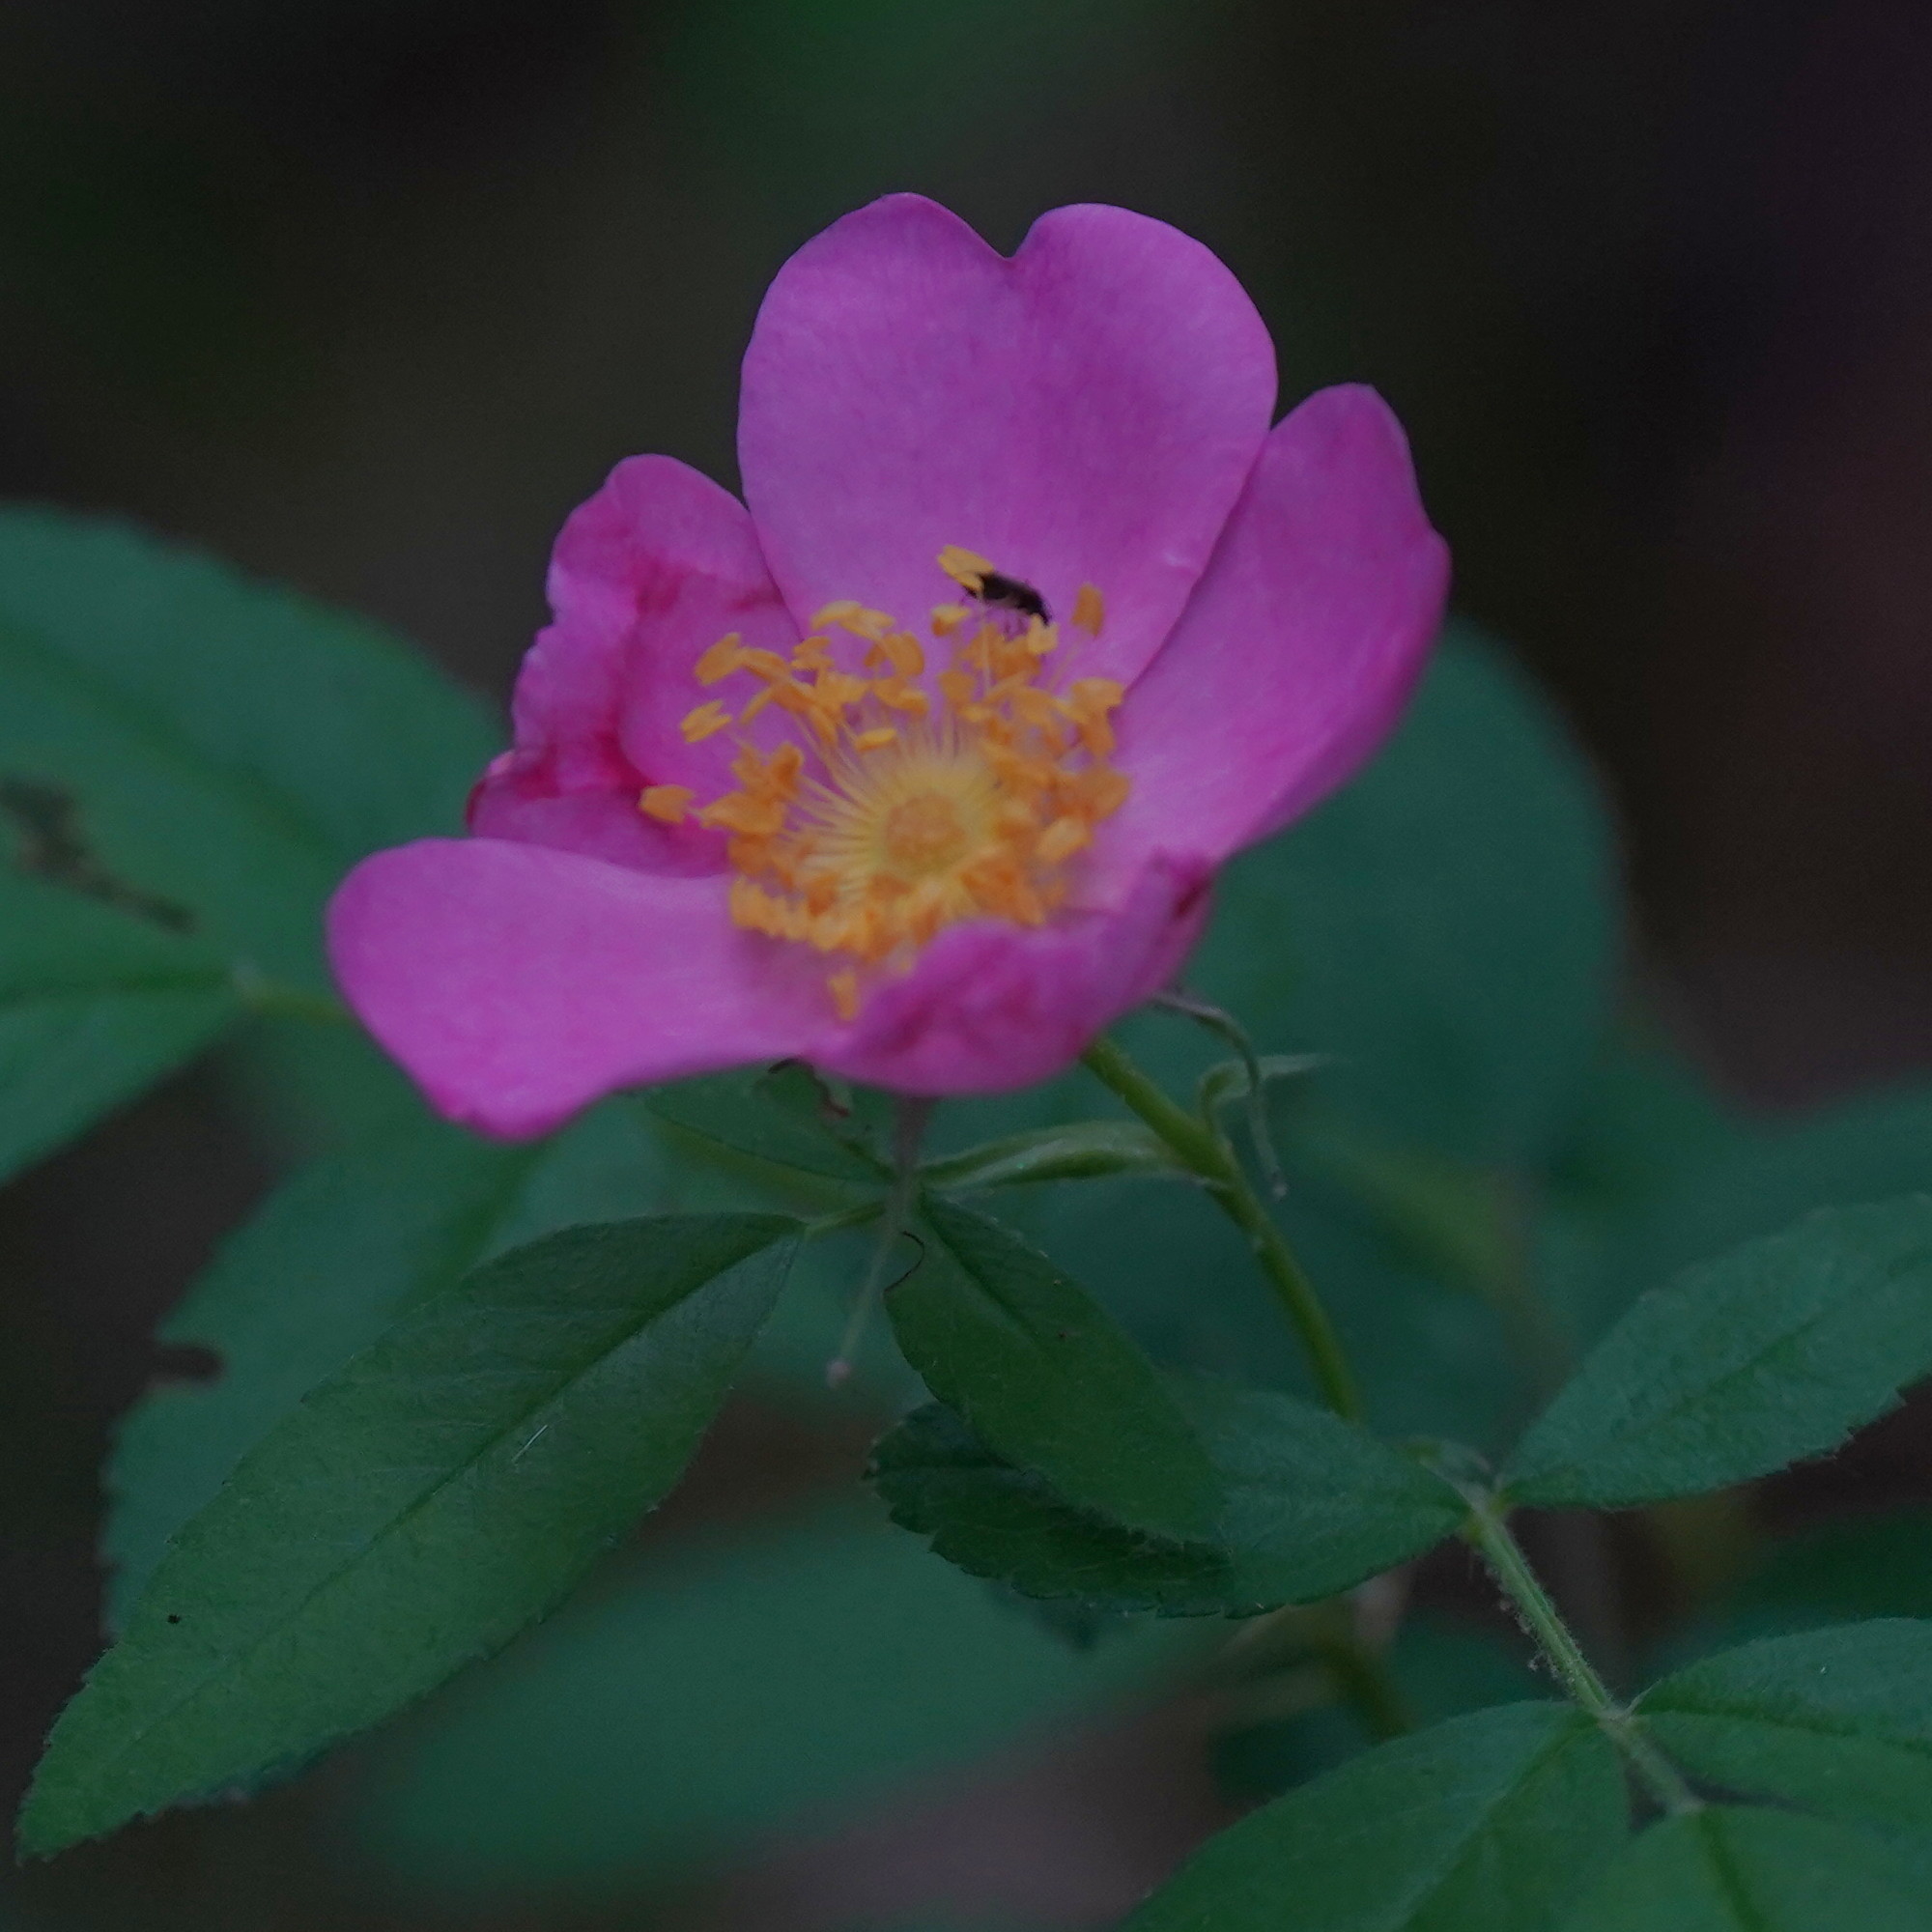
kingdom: Plantae
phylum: Tracheophyta
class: Magnoliopsida
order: Rosales
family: Rosaceae
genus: Rosa
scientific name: Rosa carolina
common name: Pasture rose
